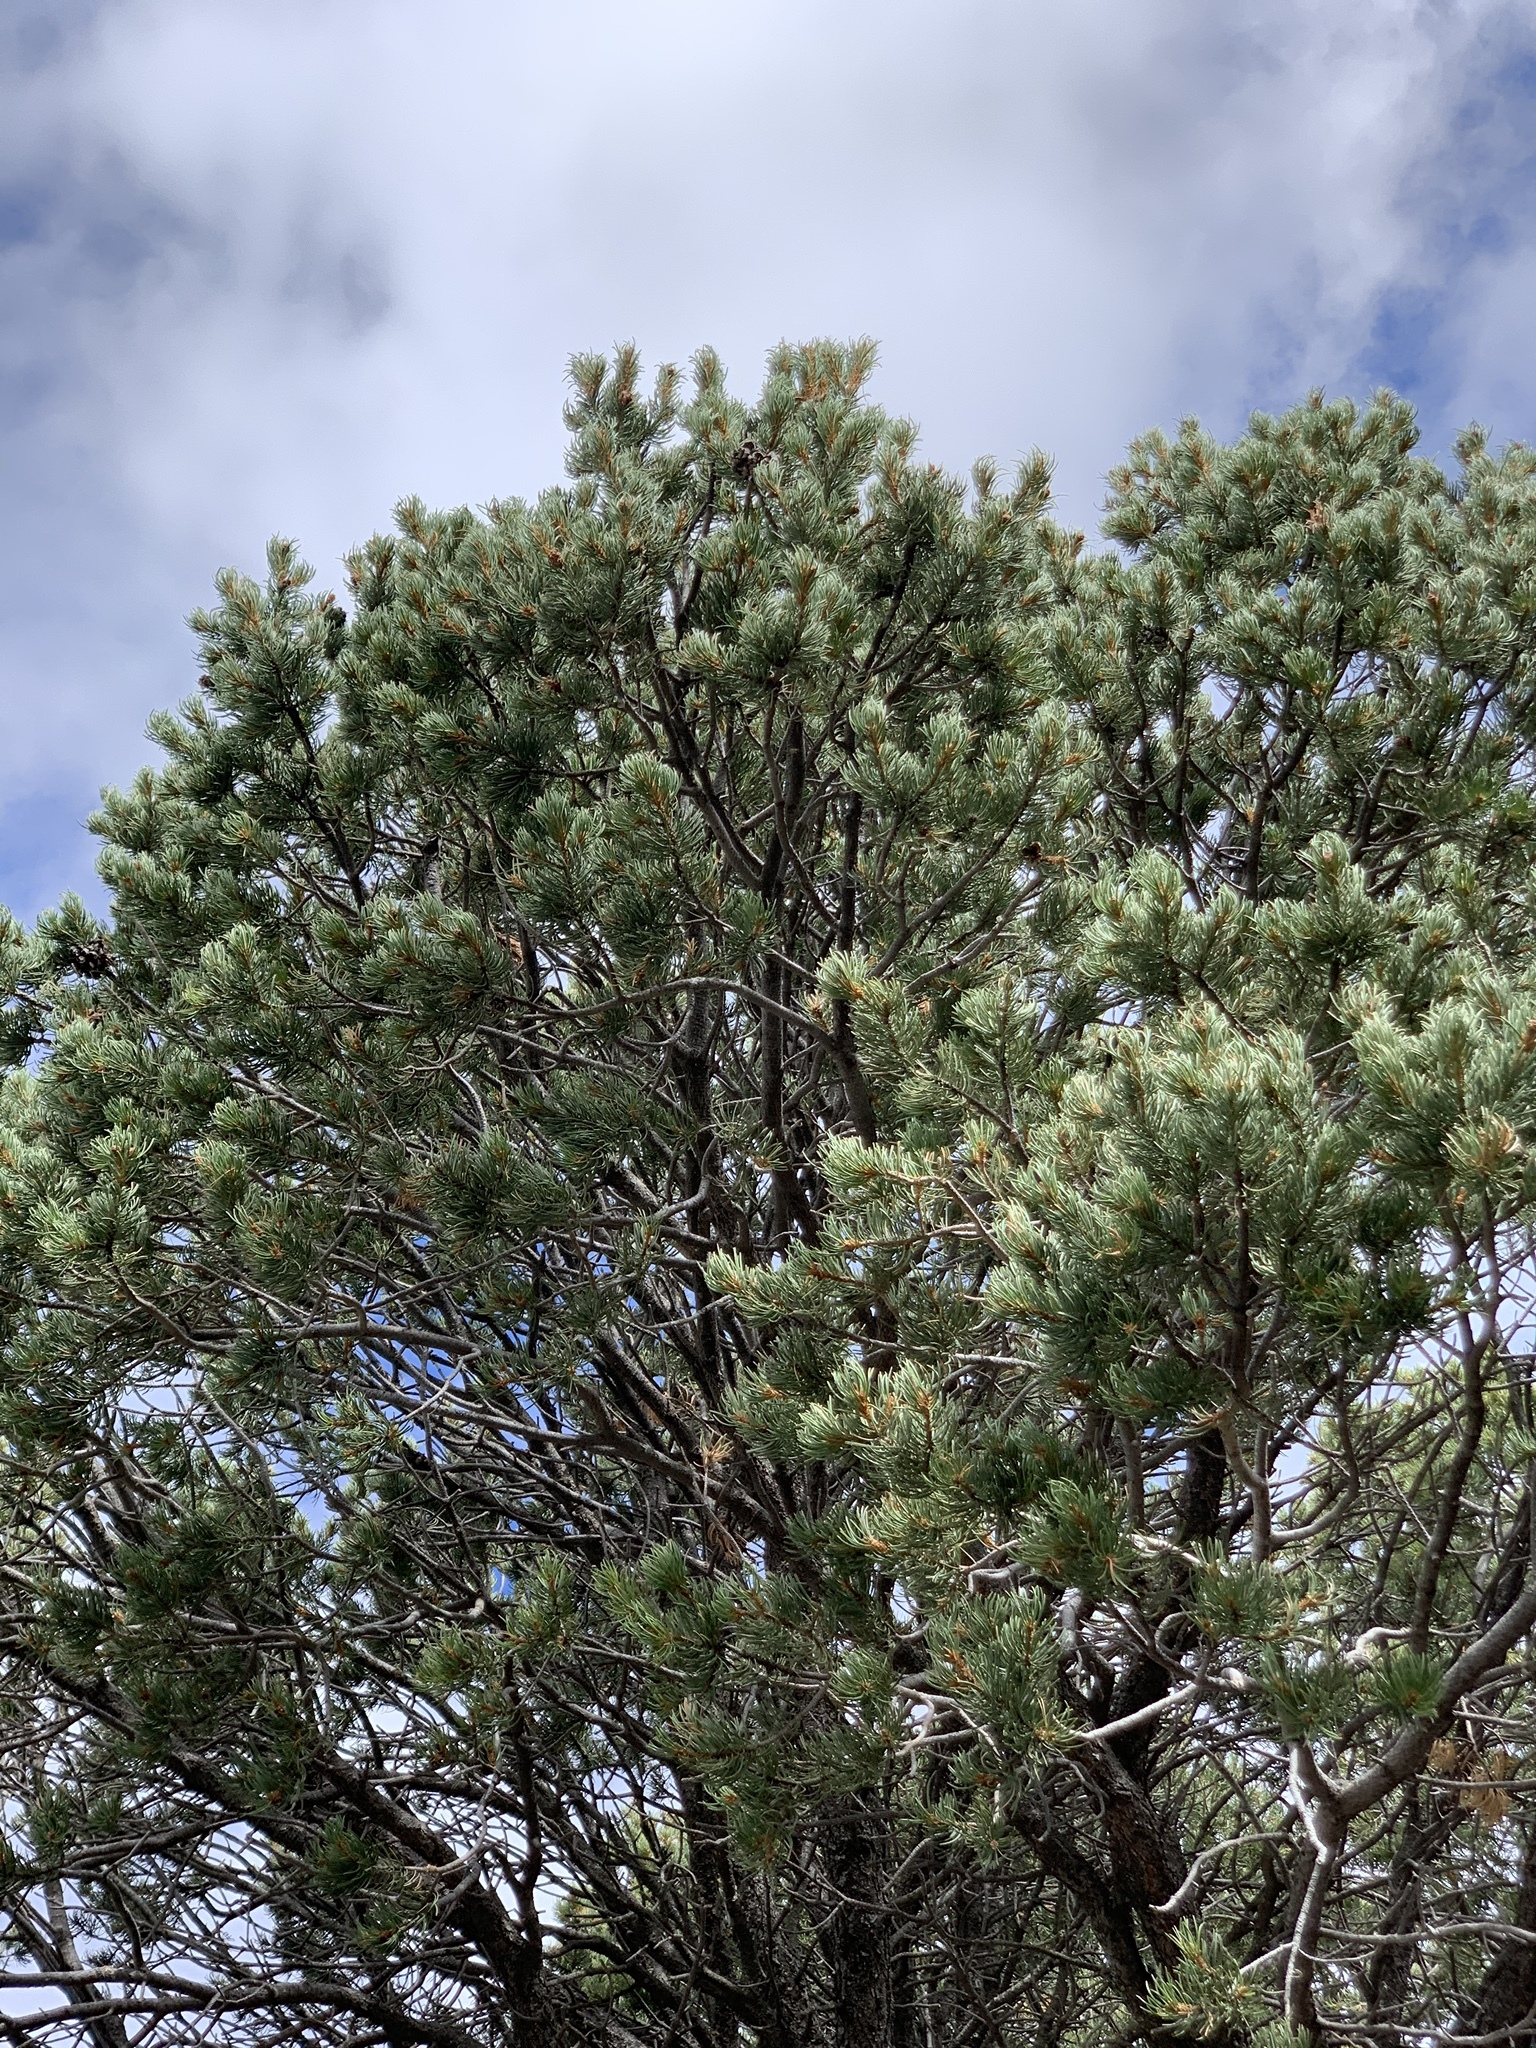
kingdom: Plantae
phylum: Tracheophyta
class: Pinopsida
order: Pinales
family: Pinaceae
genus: Pinus
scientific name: Pinus edulis
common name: Colorado pinyon
